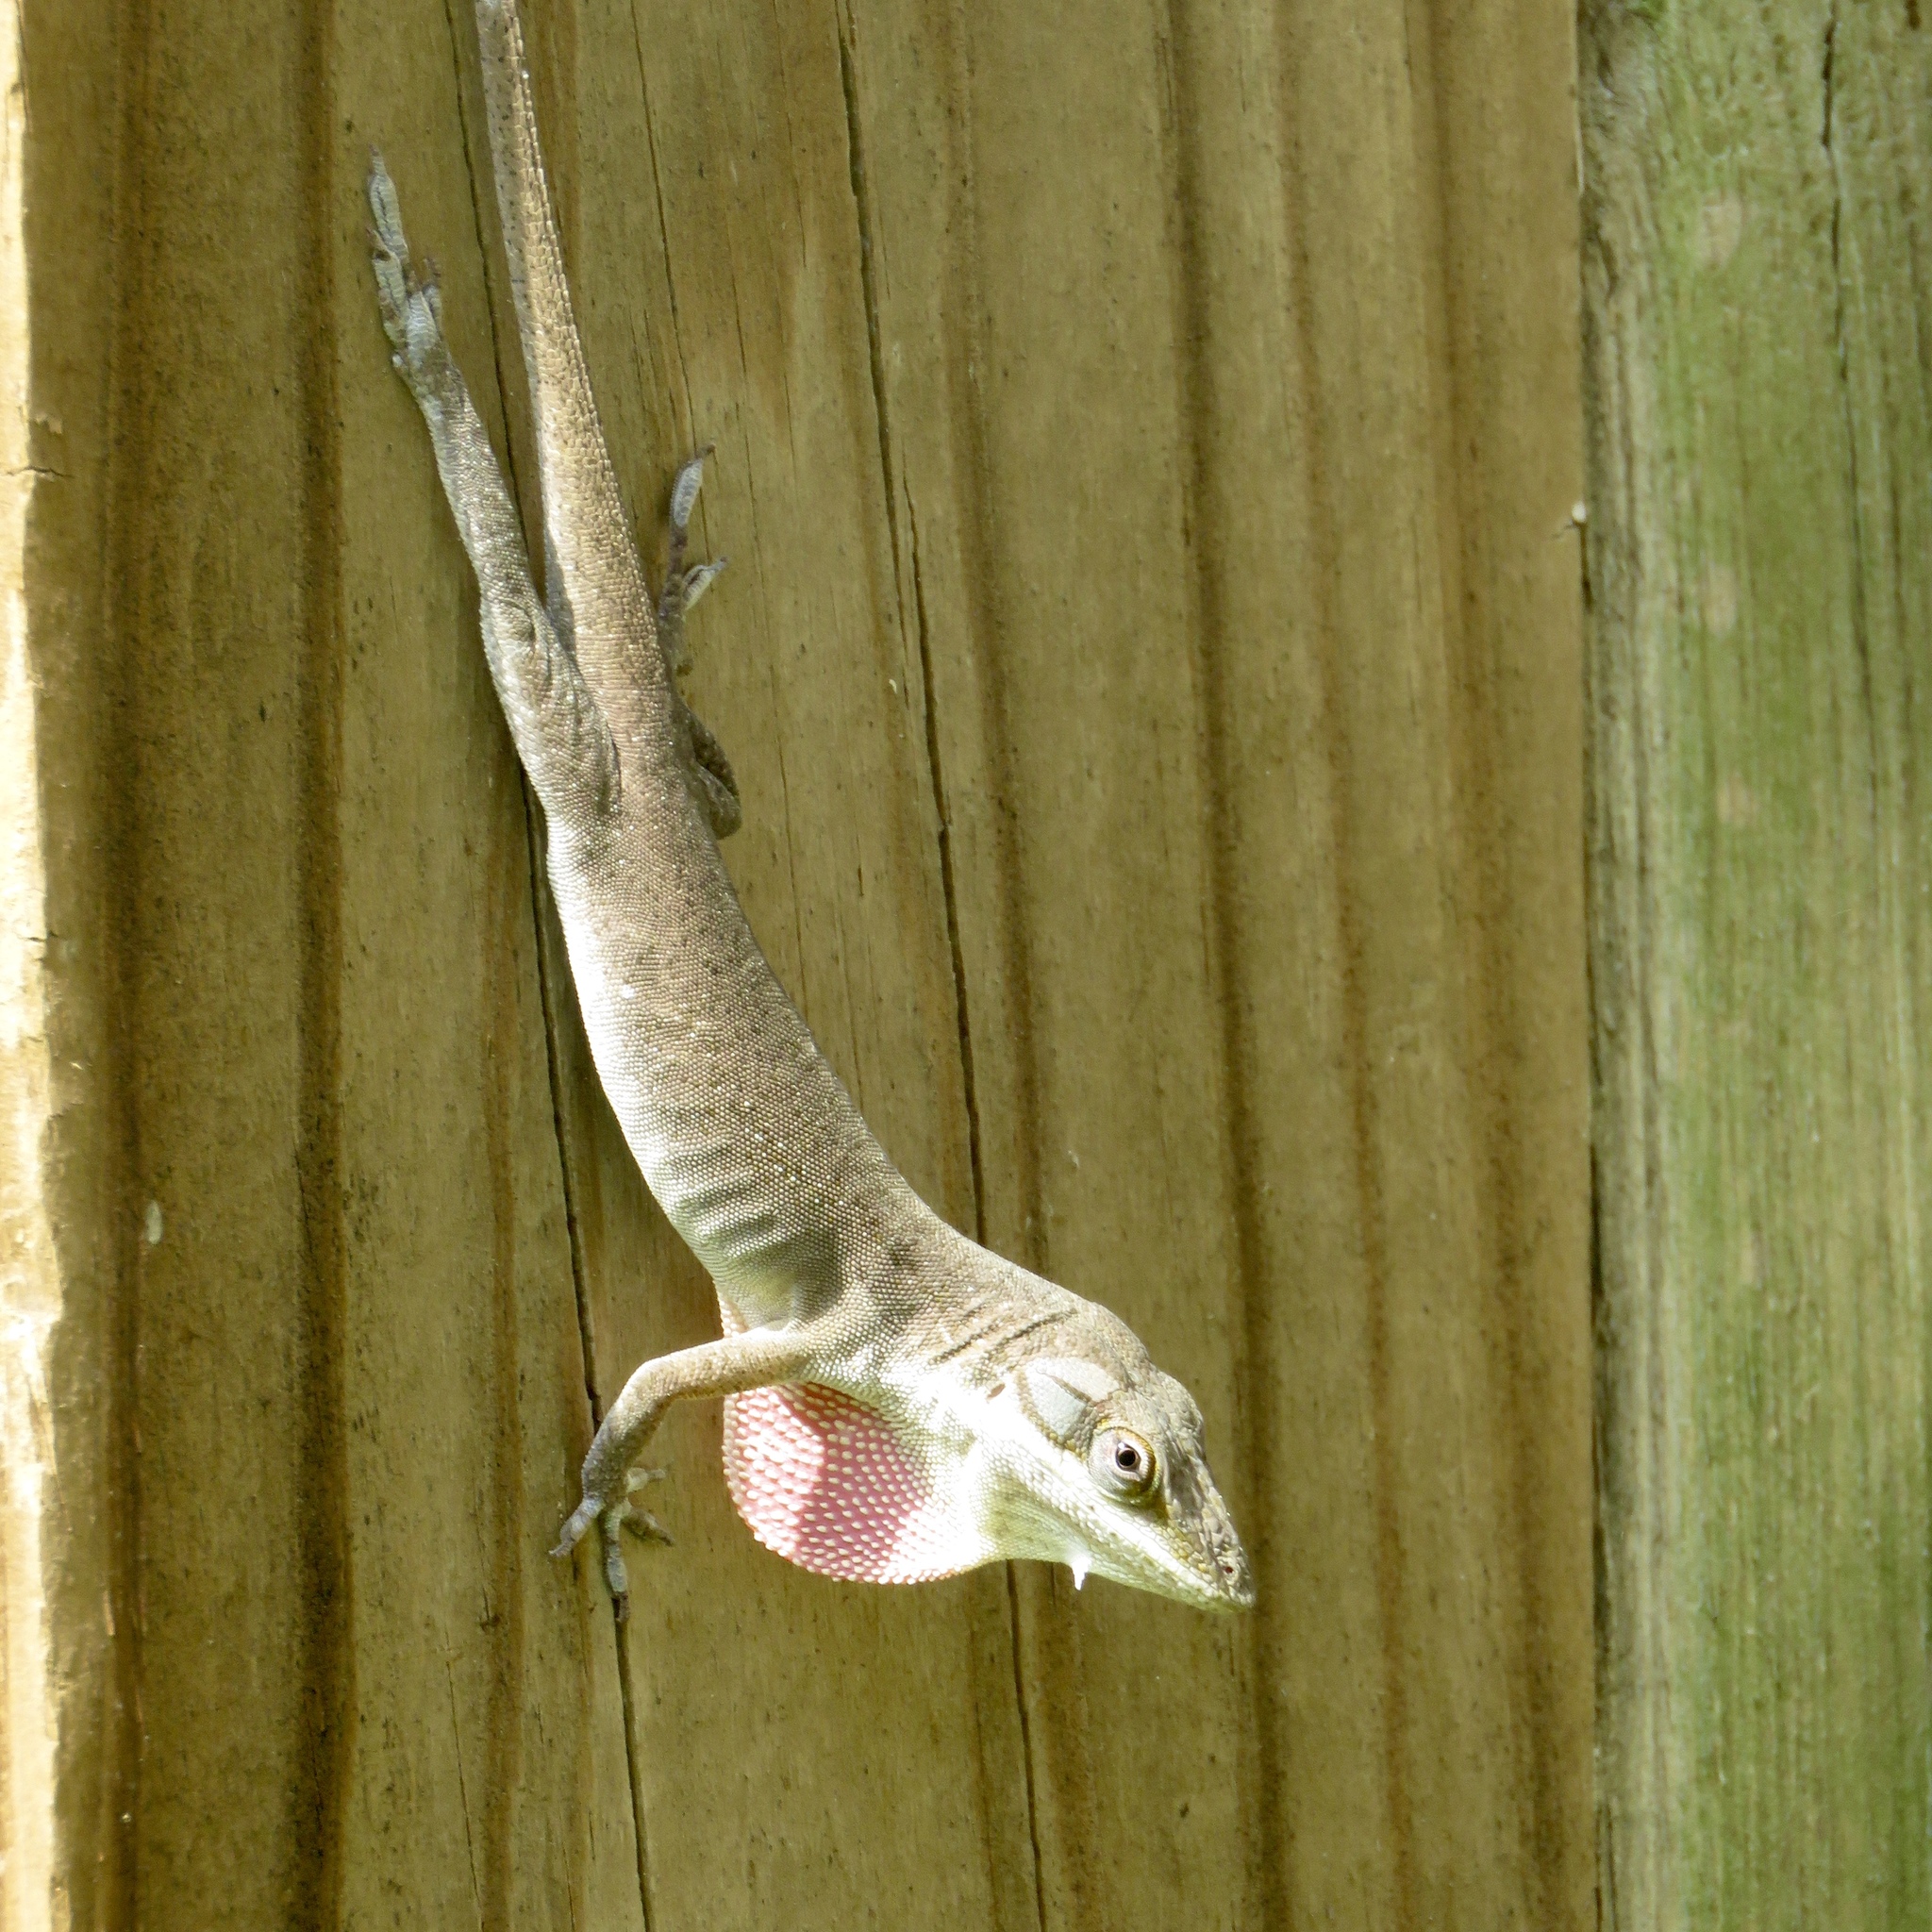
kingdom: Animalia
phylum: Chordata
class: Squamata
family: Dactyloidae
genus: Anolis
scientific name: Anolis carolinensis
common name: Green anole
